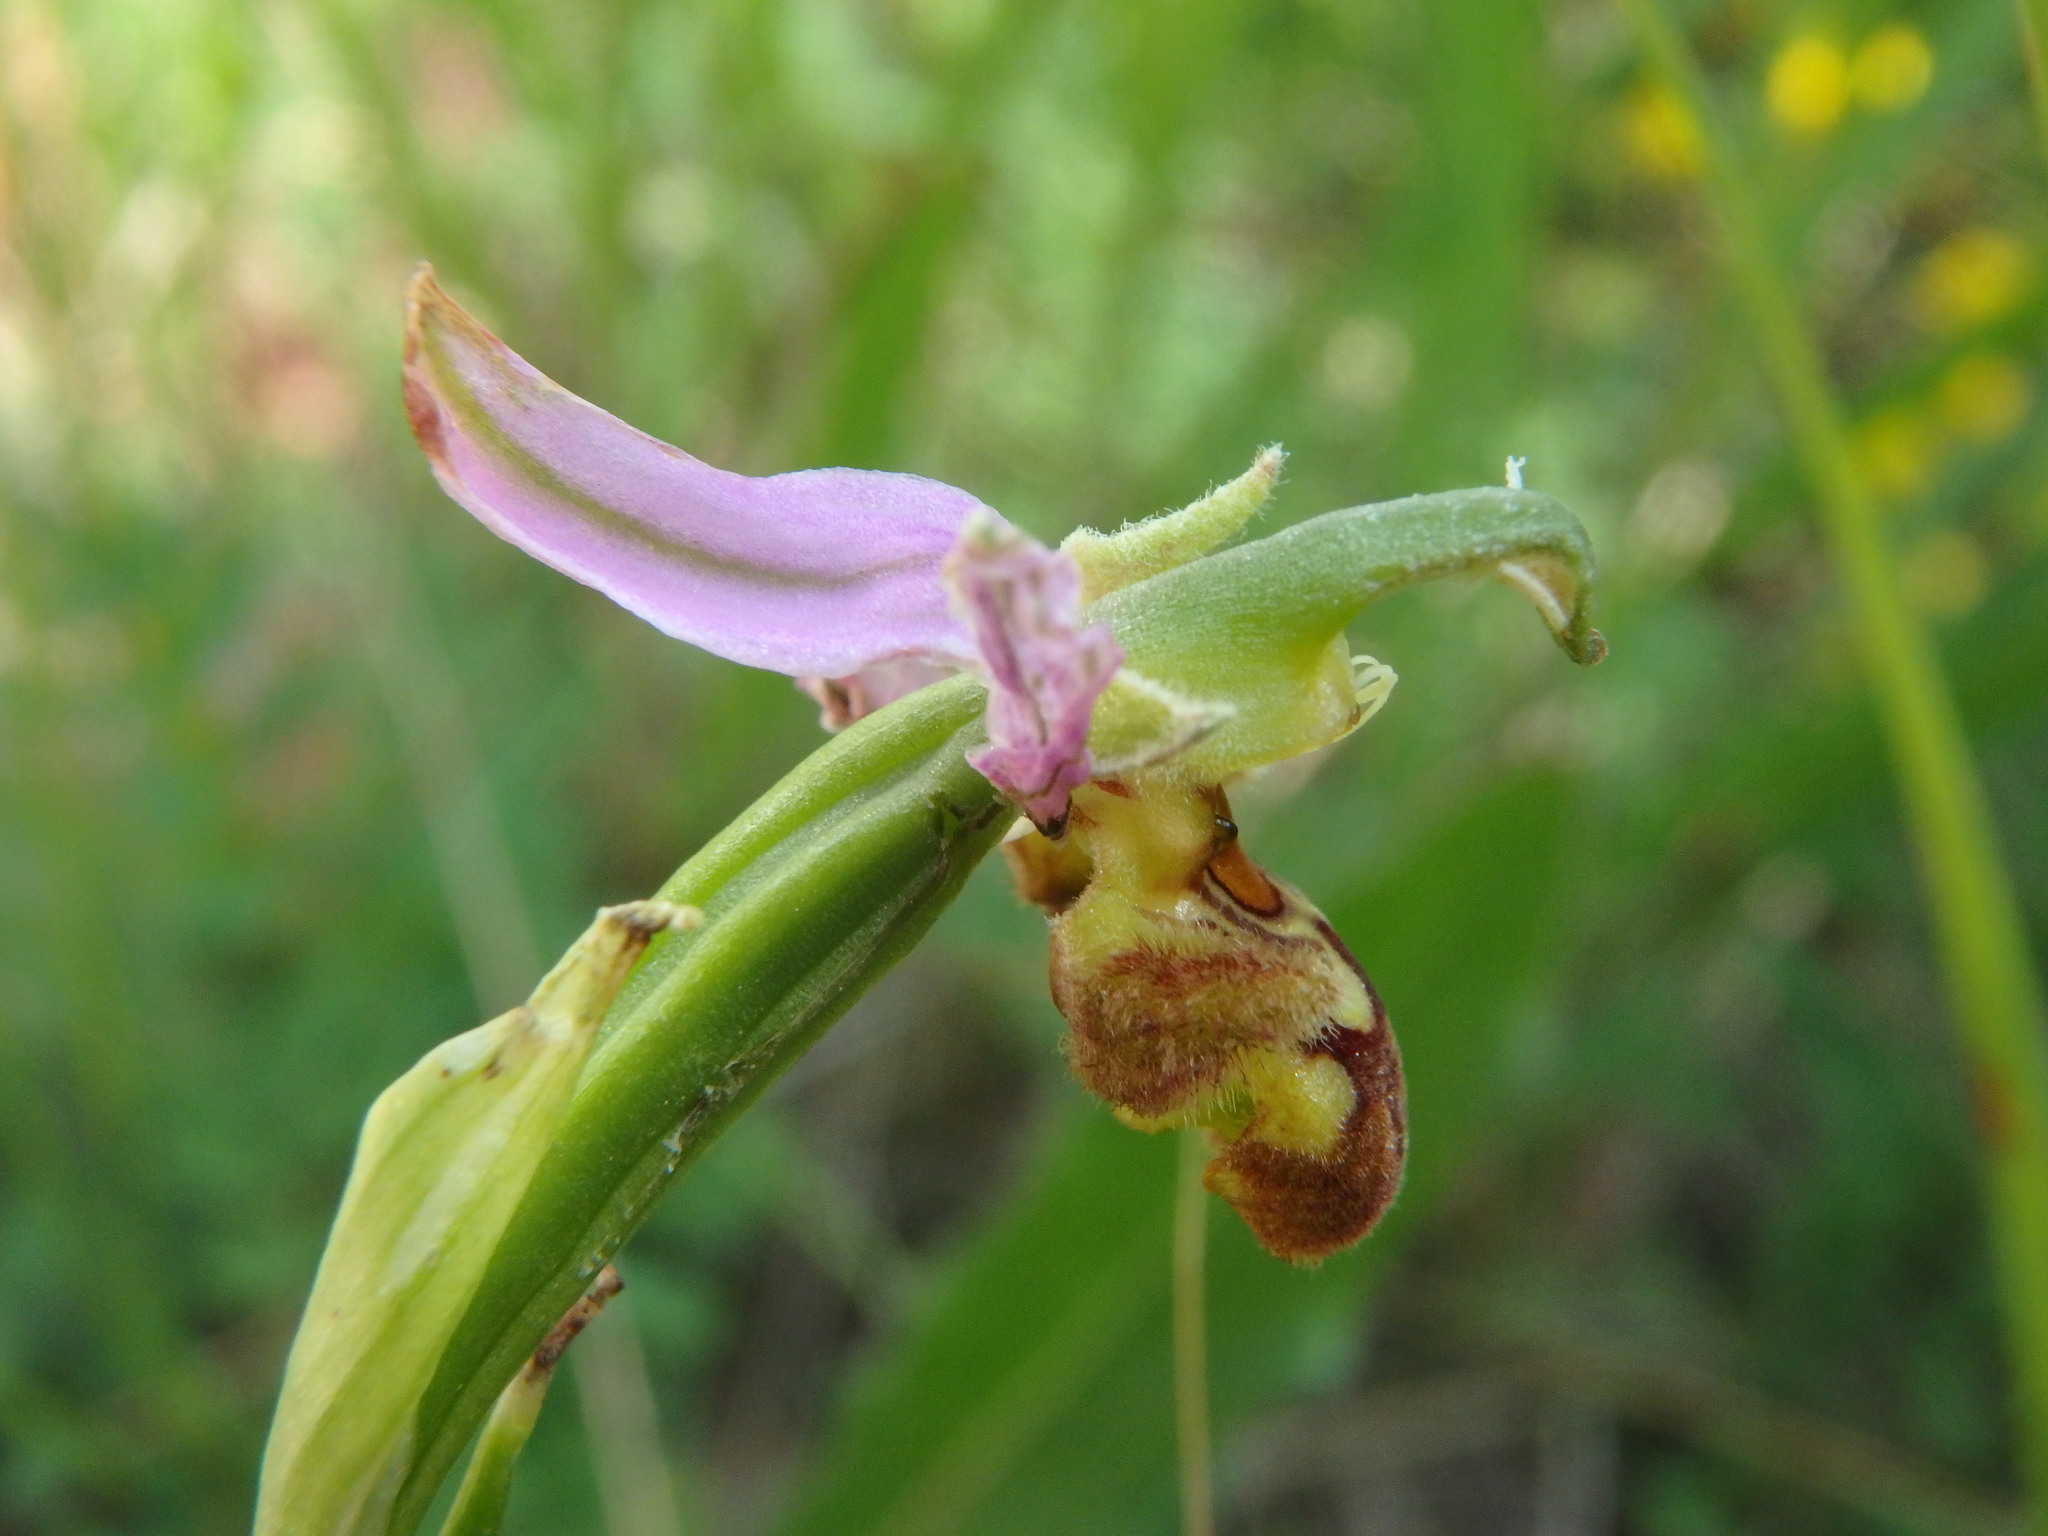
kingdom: Plantae
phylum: Tracheophyta
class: Liliopsida
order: Asparagales
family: Orchidaceae
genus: Ophrys
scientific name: Ophrys apifera
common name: Bee orchid
